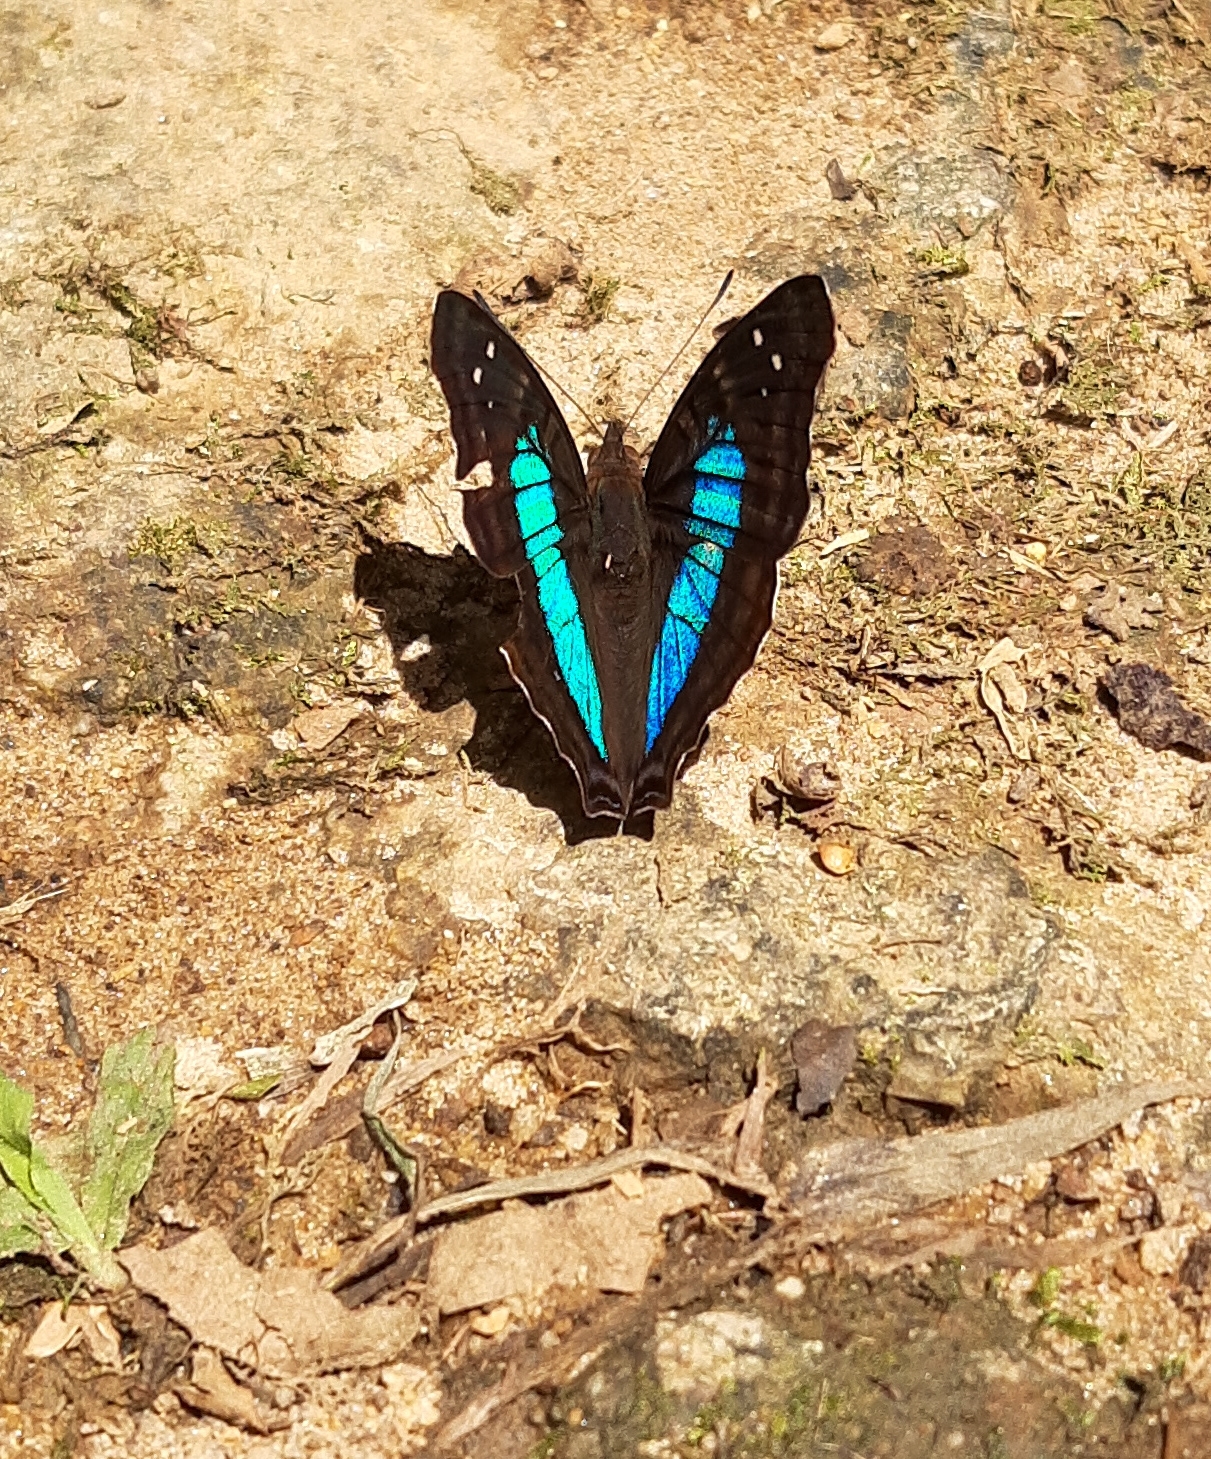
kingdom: Animalia
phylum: Arthropoda
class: Insecta
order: Lepidoptera
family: Nymphalidae
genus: Doxocopa
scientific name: Doxocopa laurentia
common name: Turquoise emperor
